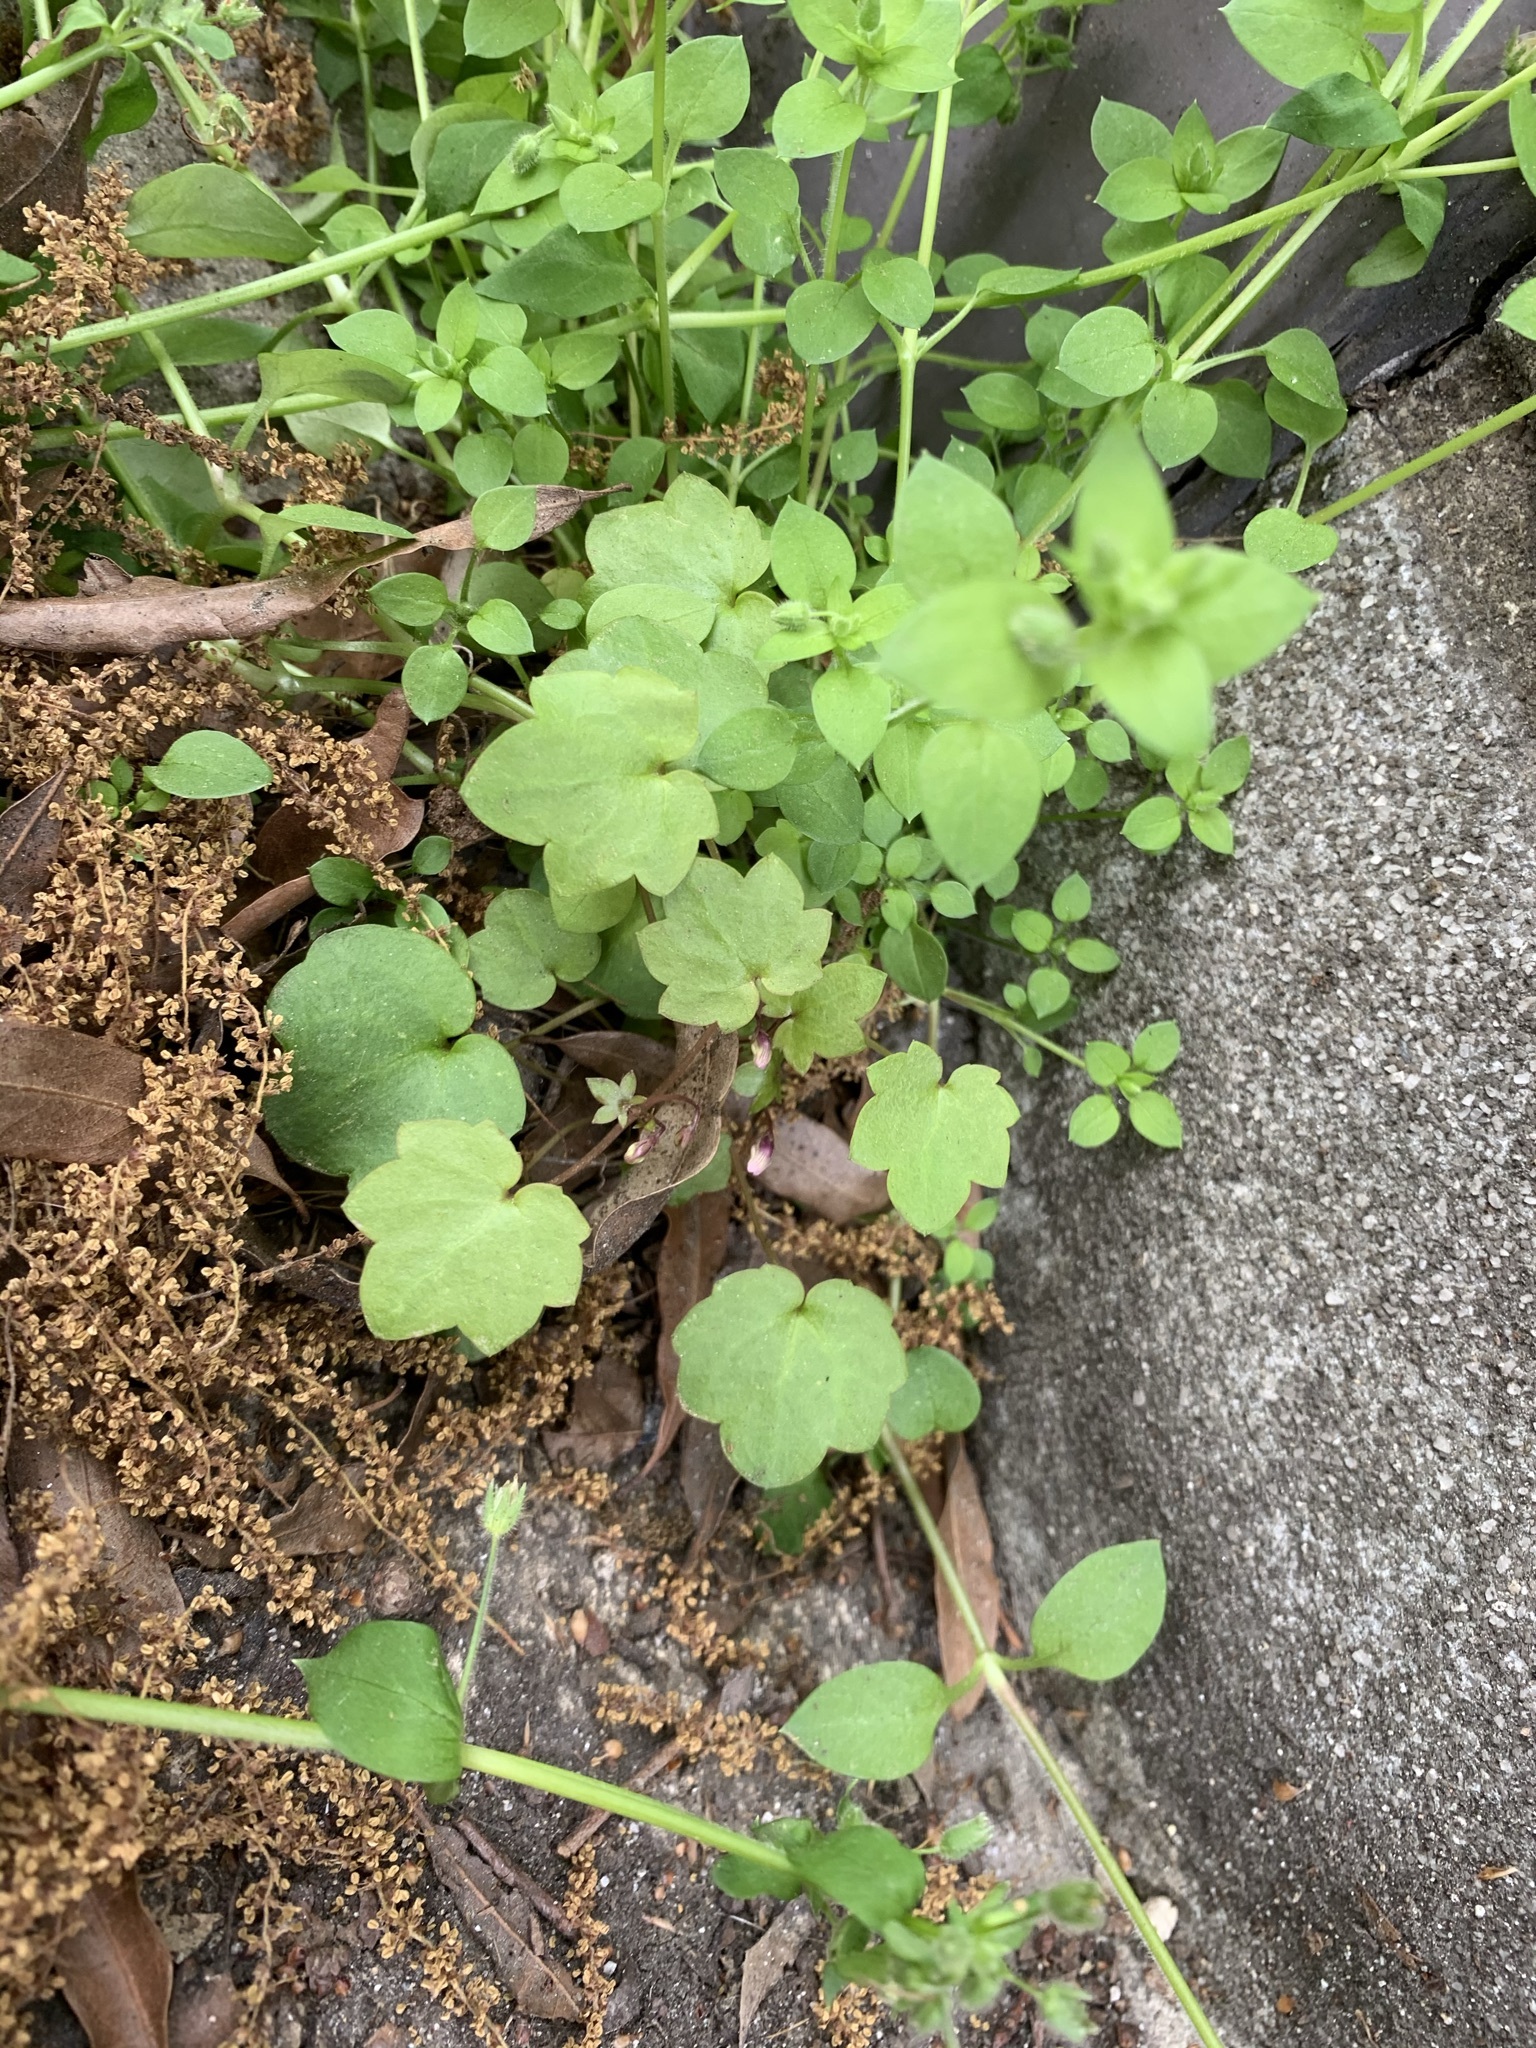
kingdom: Plantae
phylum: Tracheophyta
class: Magnoliopsida
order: Lamiales
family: Plantaginaceae
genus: Cymbalaria
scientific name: Cymbalaria muralis
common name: Ivy-leaved toadflax
